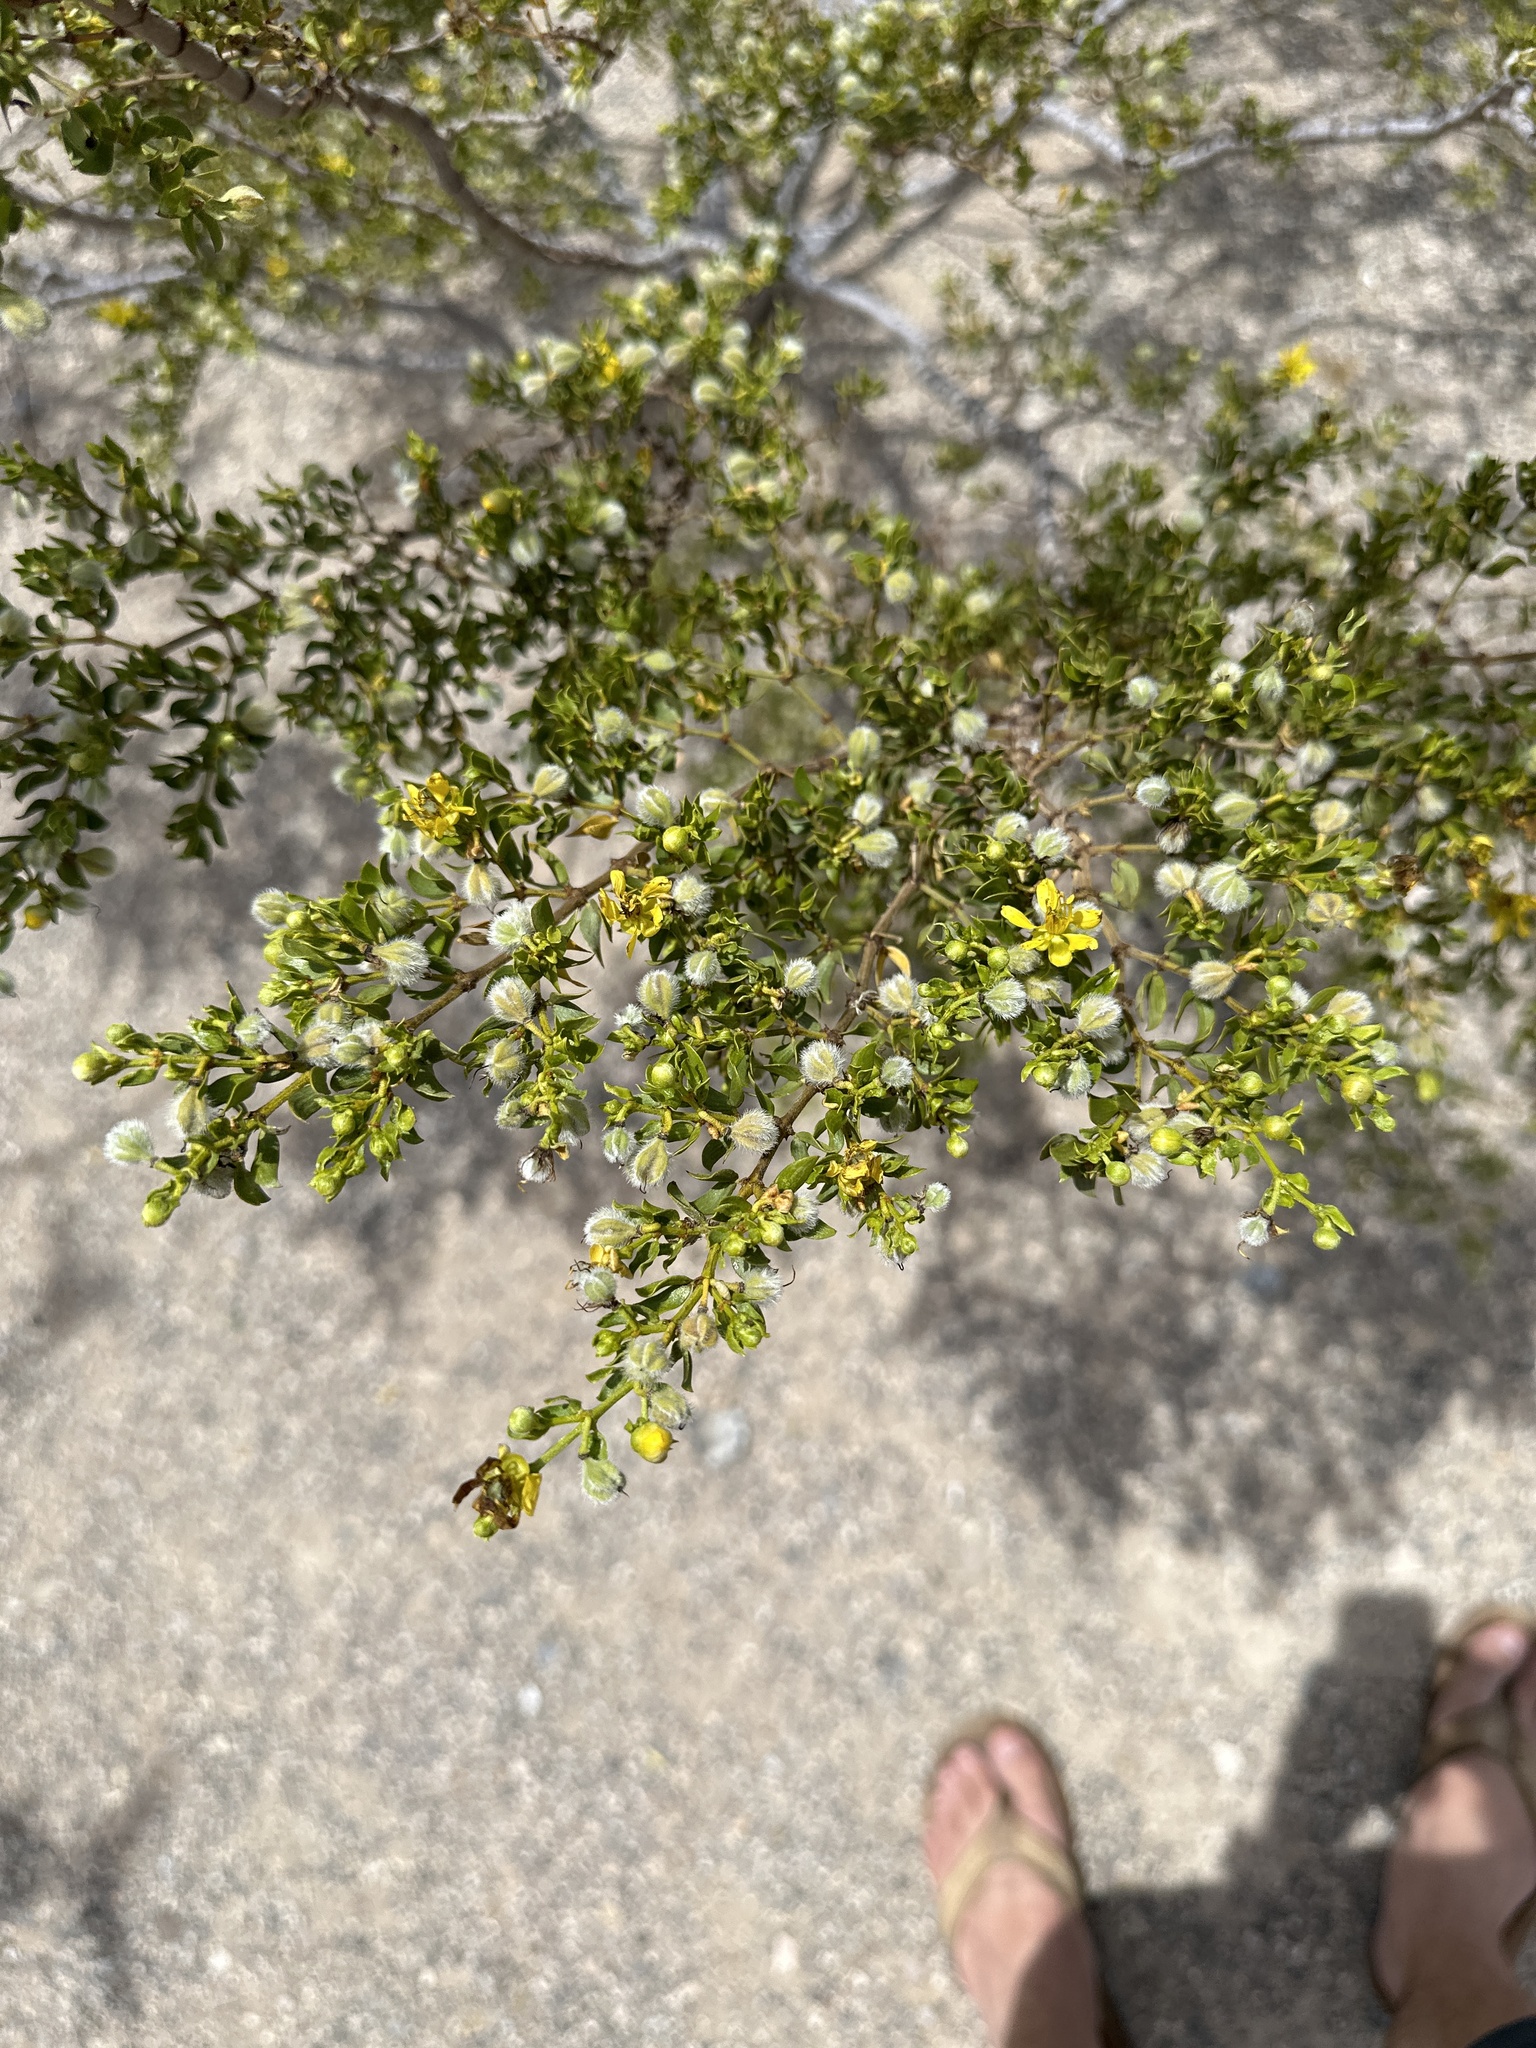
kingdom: Plantae
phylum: Tracheophyta
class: Magnoliopsida
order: Zygophyllales
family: Zygophyllaceae
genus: Larrea
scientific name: Larrea tridentata
